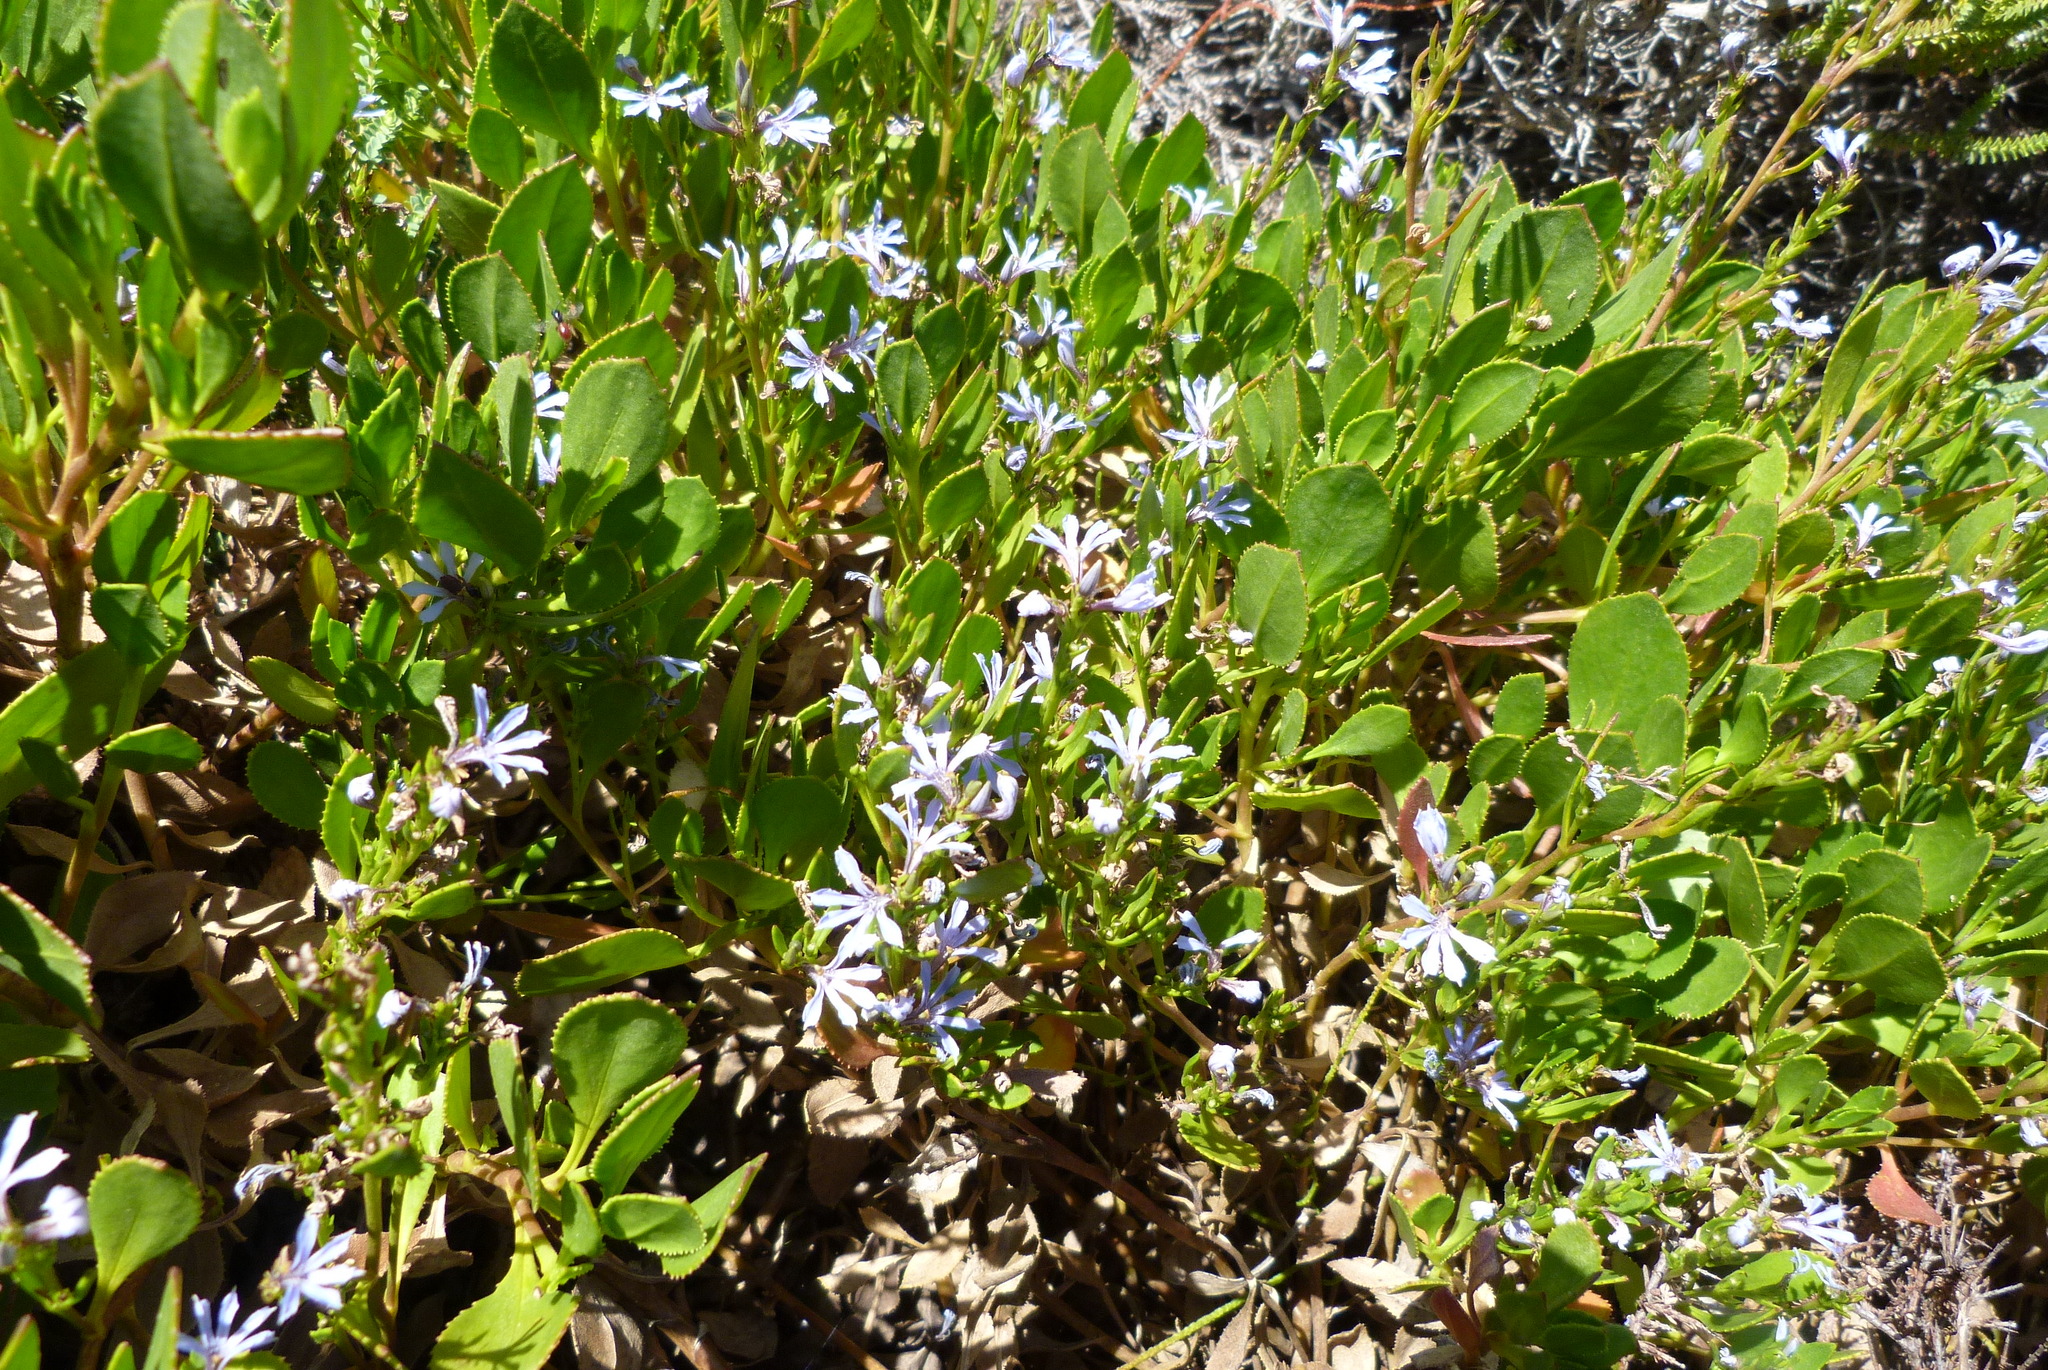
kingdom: Plantae
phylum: Tracheophyta
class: Magnoliopsida
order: Asterales
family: Goodeniaceae
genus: Scaevola
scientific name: Scaevola crassifolia
